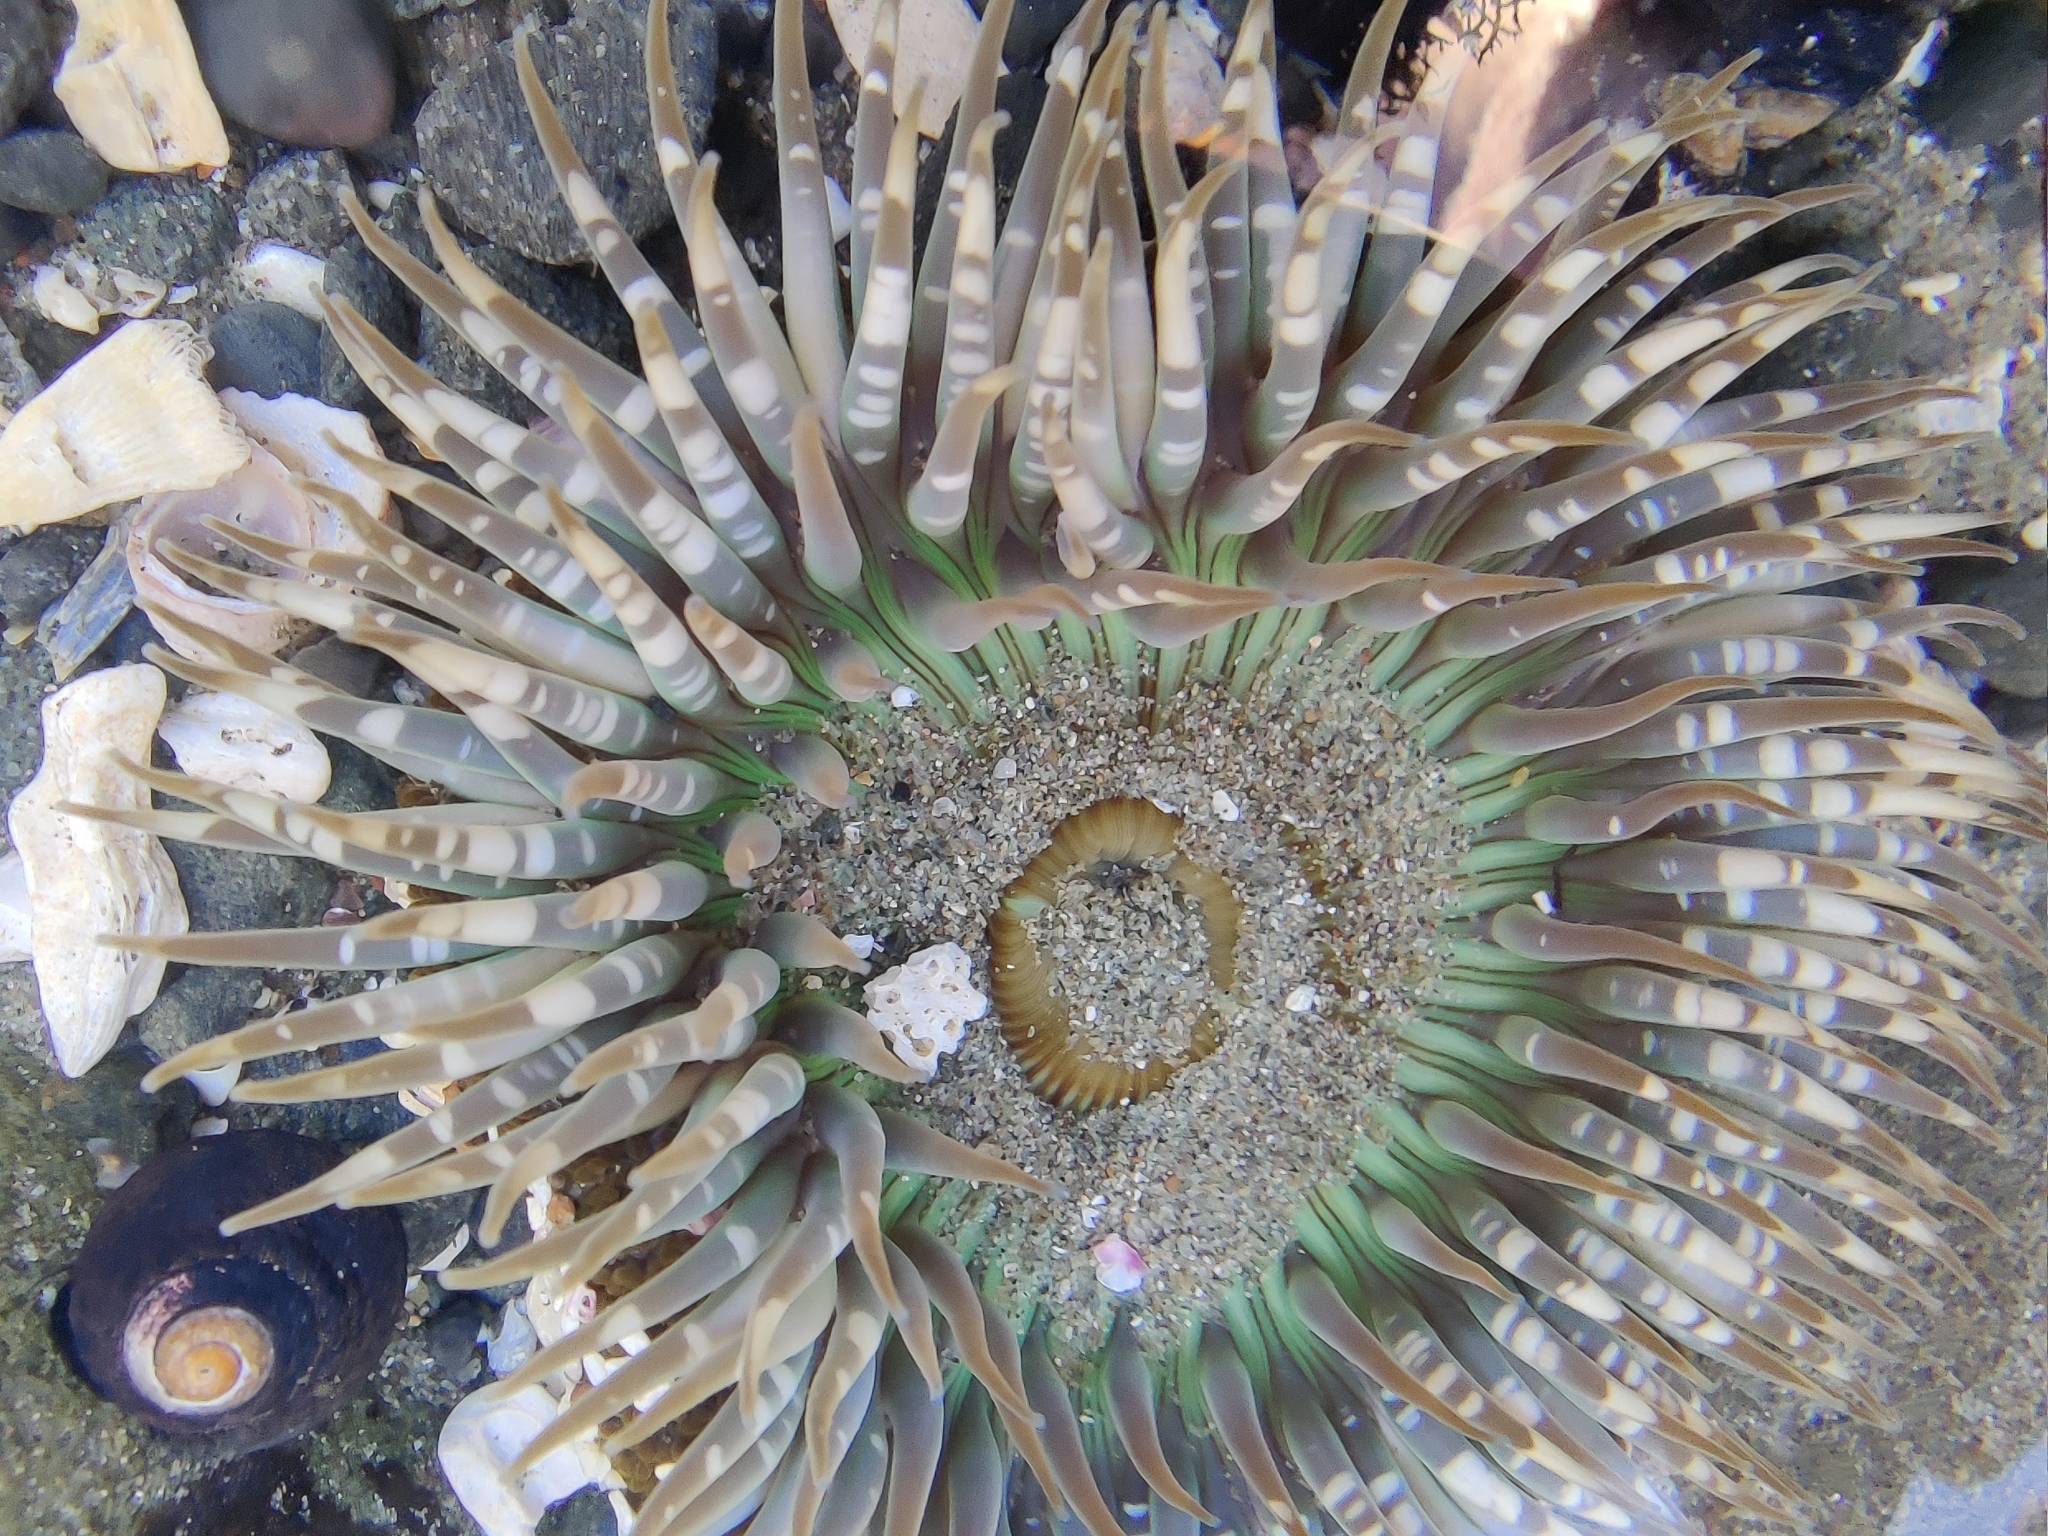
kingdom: Animalia
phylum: Cnidaria
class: Anthozoa
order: Actiniaria
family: Actiniidae
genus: Anthopleura
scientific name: Anthopleura sola
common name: Sun anemone
